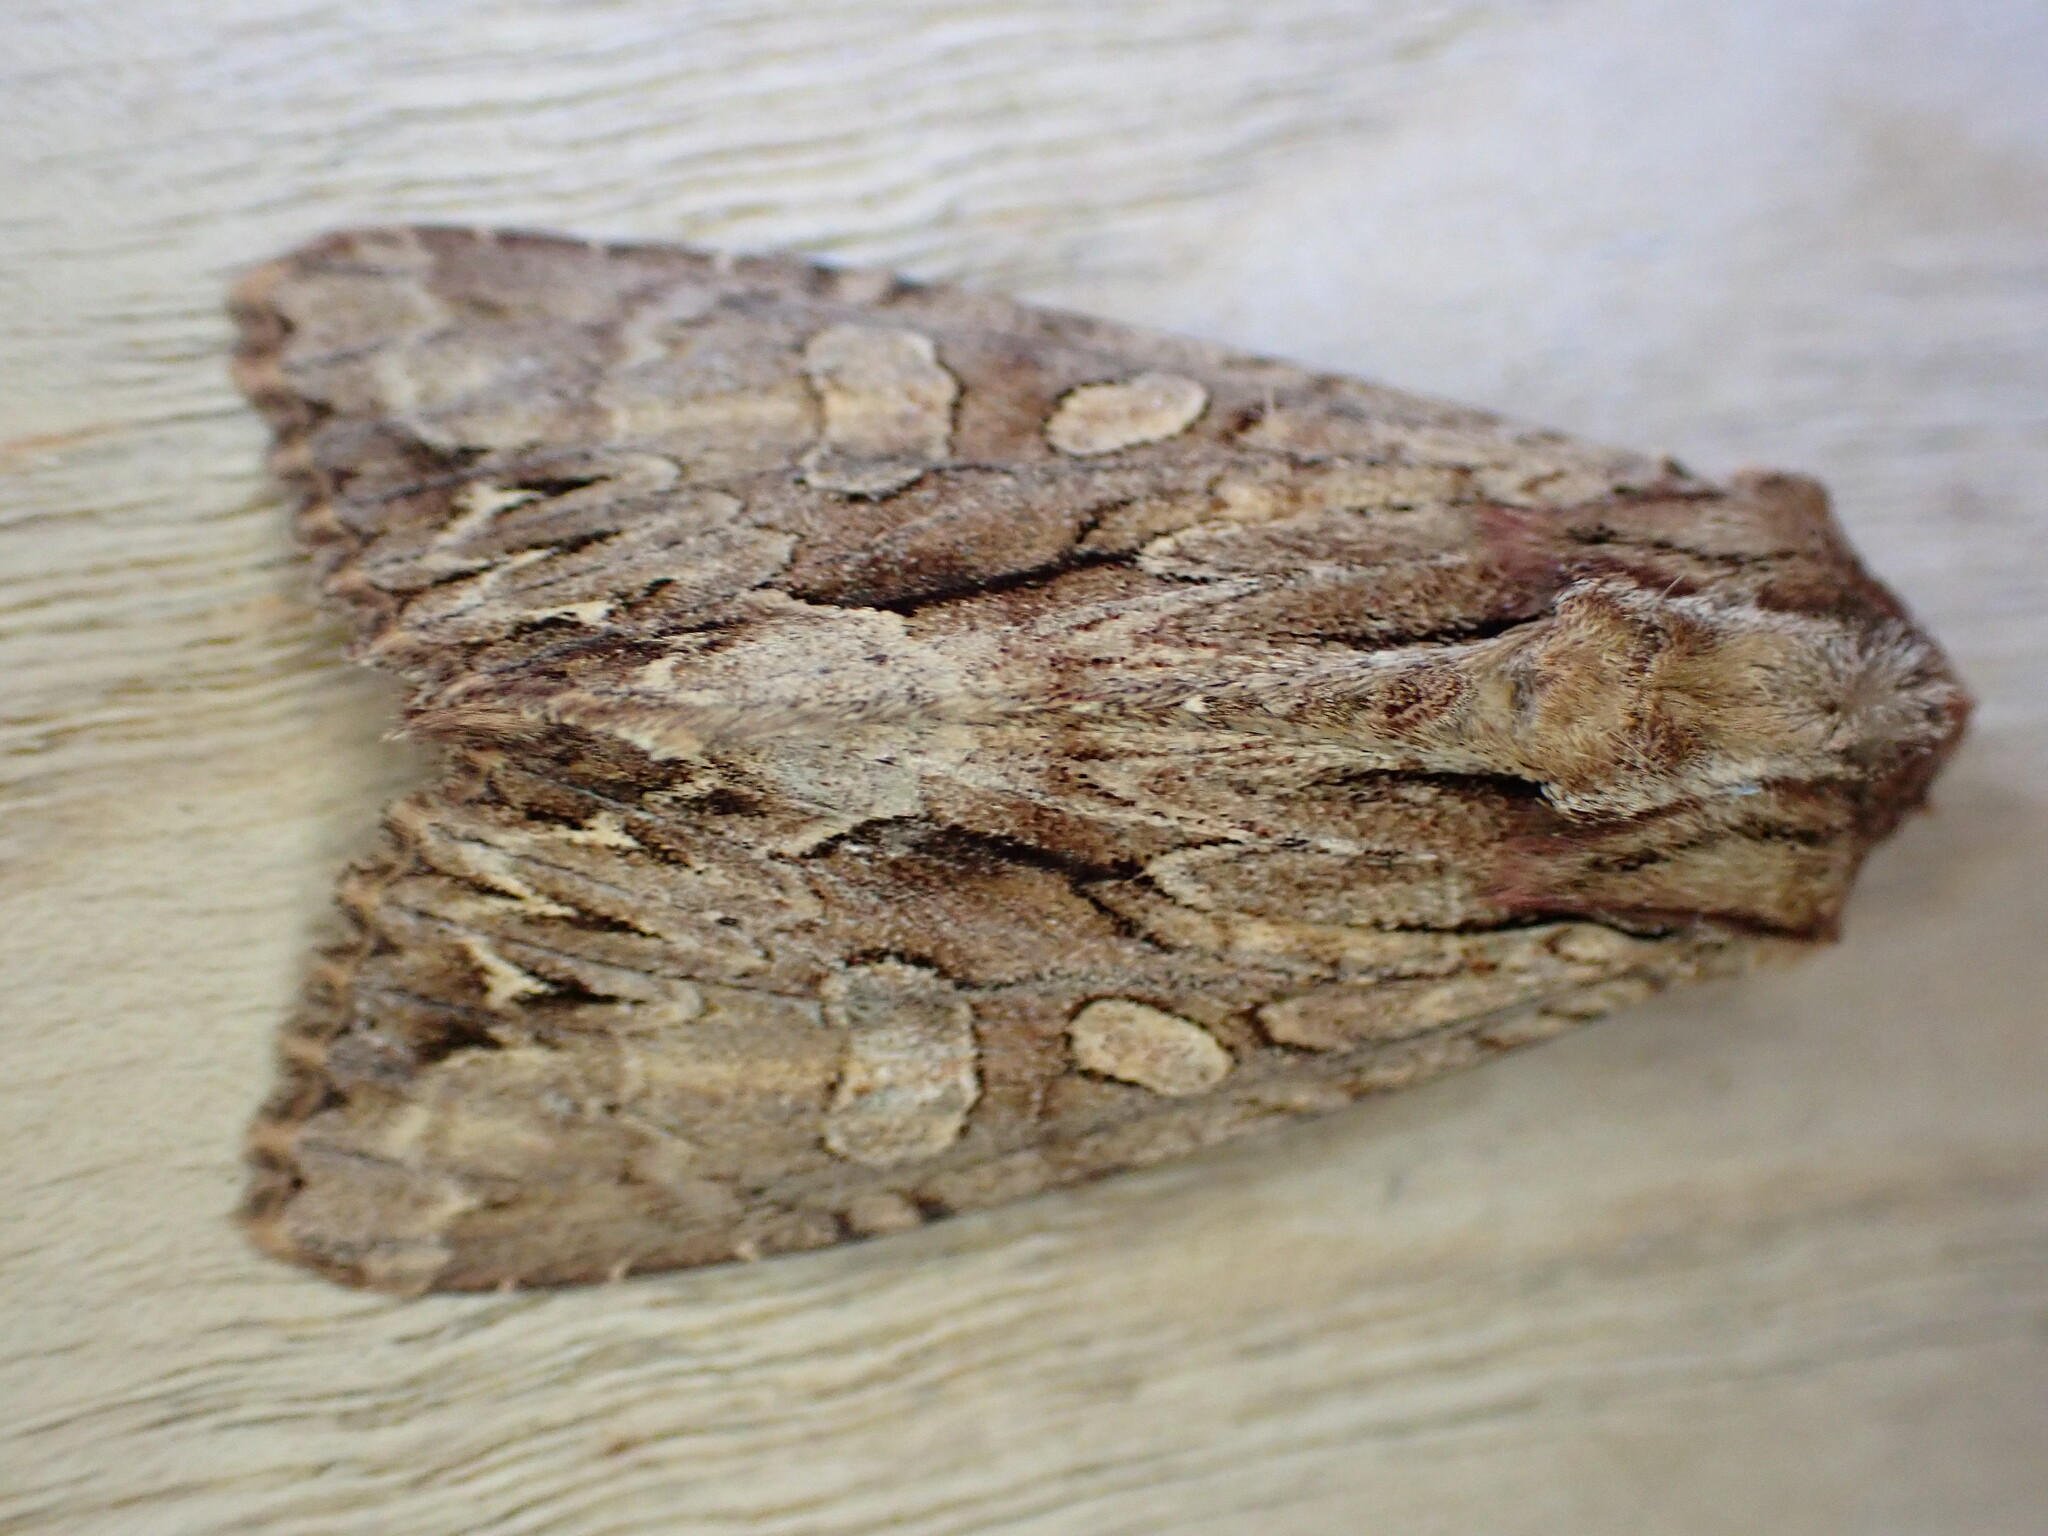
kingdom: Animalia
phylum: Arthropoda
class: Insecta
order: Lepidoptera
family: Noctuidae
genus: Apamea
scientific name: Apamea monoglypha
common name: Dark arches
